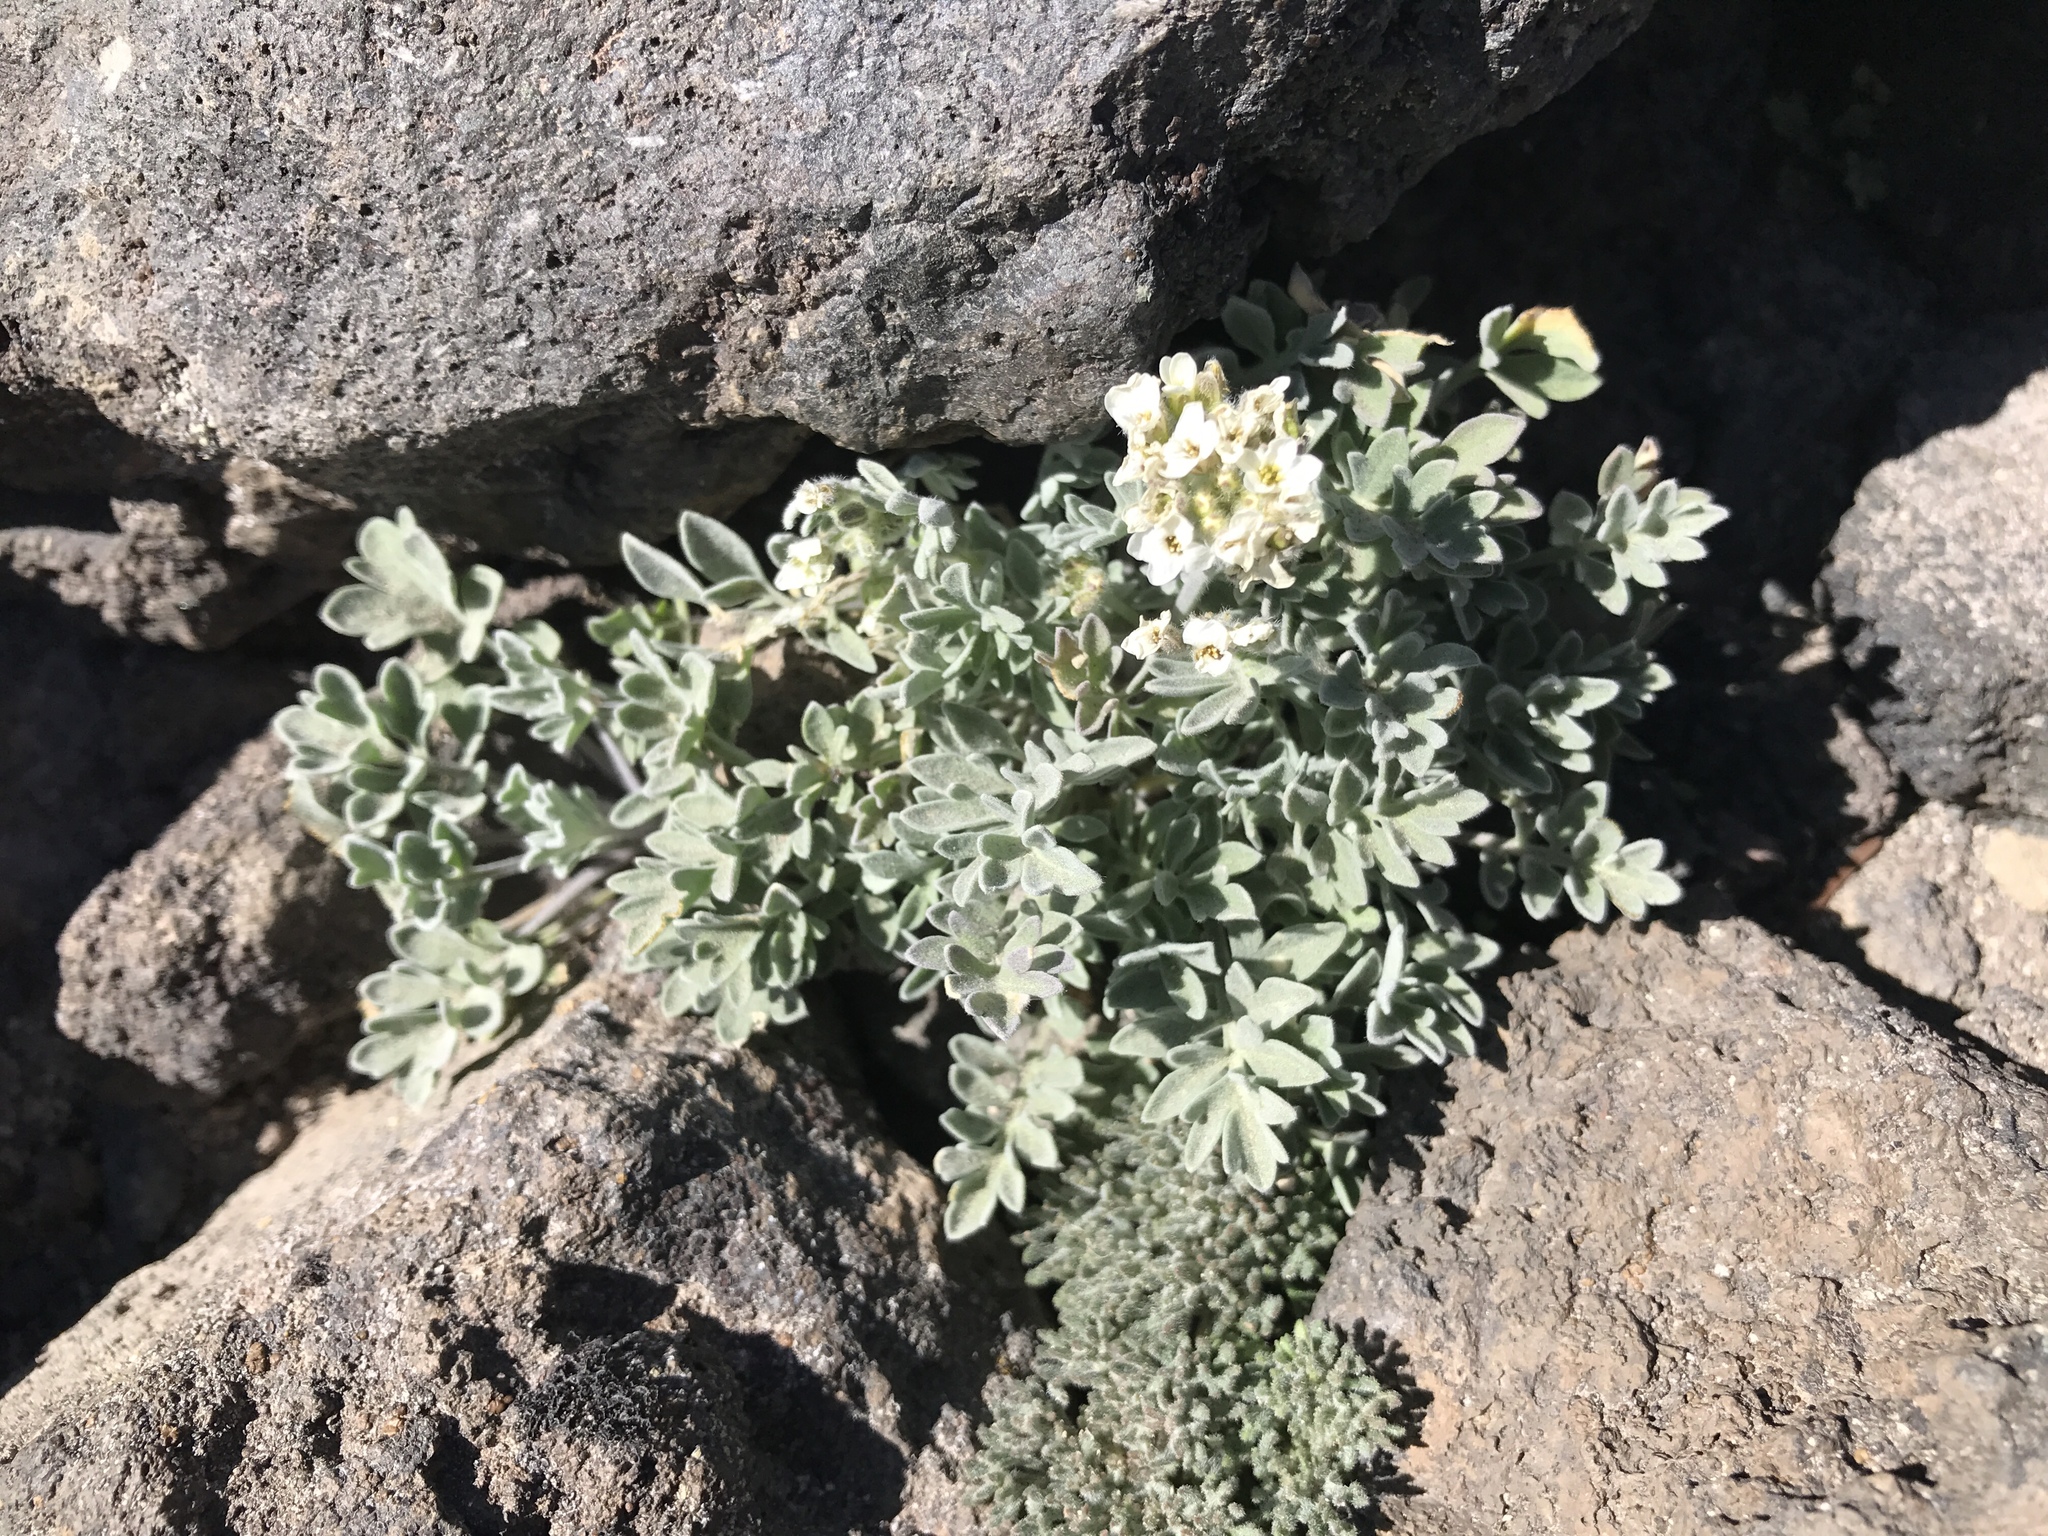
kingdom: Plantae
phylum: Tracheophyta
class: Magnoliopsida
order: Brassicales
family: Brassicaceae
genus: Smelowskia
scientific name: Smelowskia americana
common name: American false candytuft
